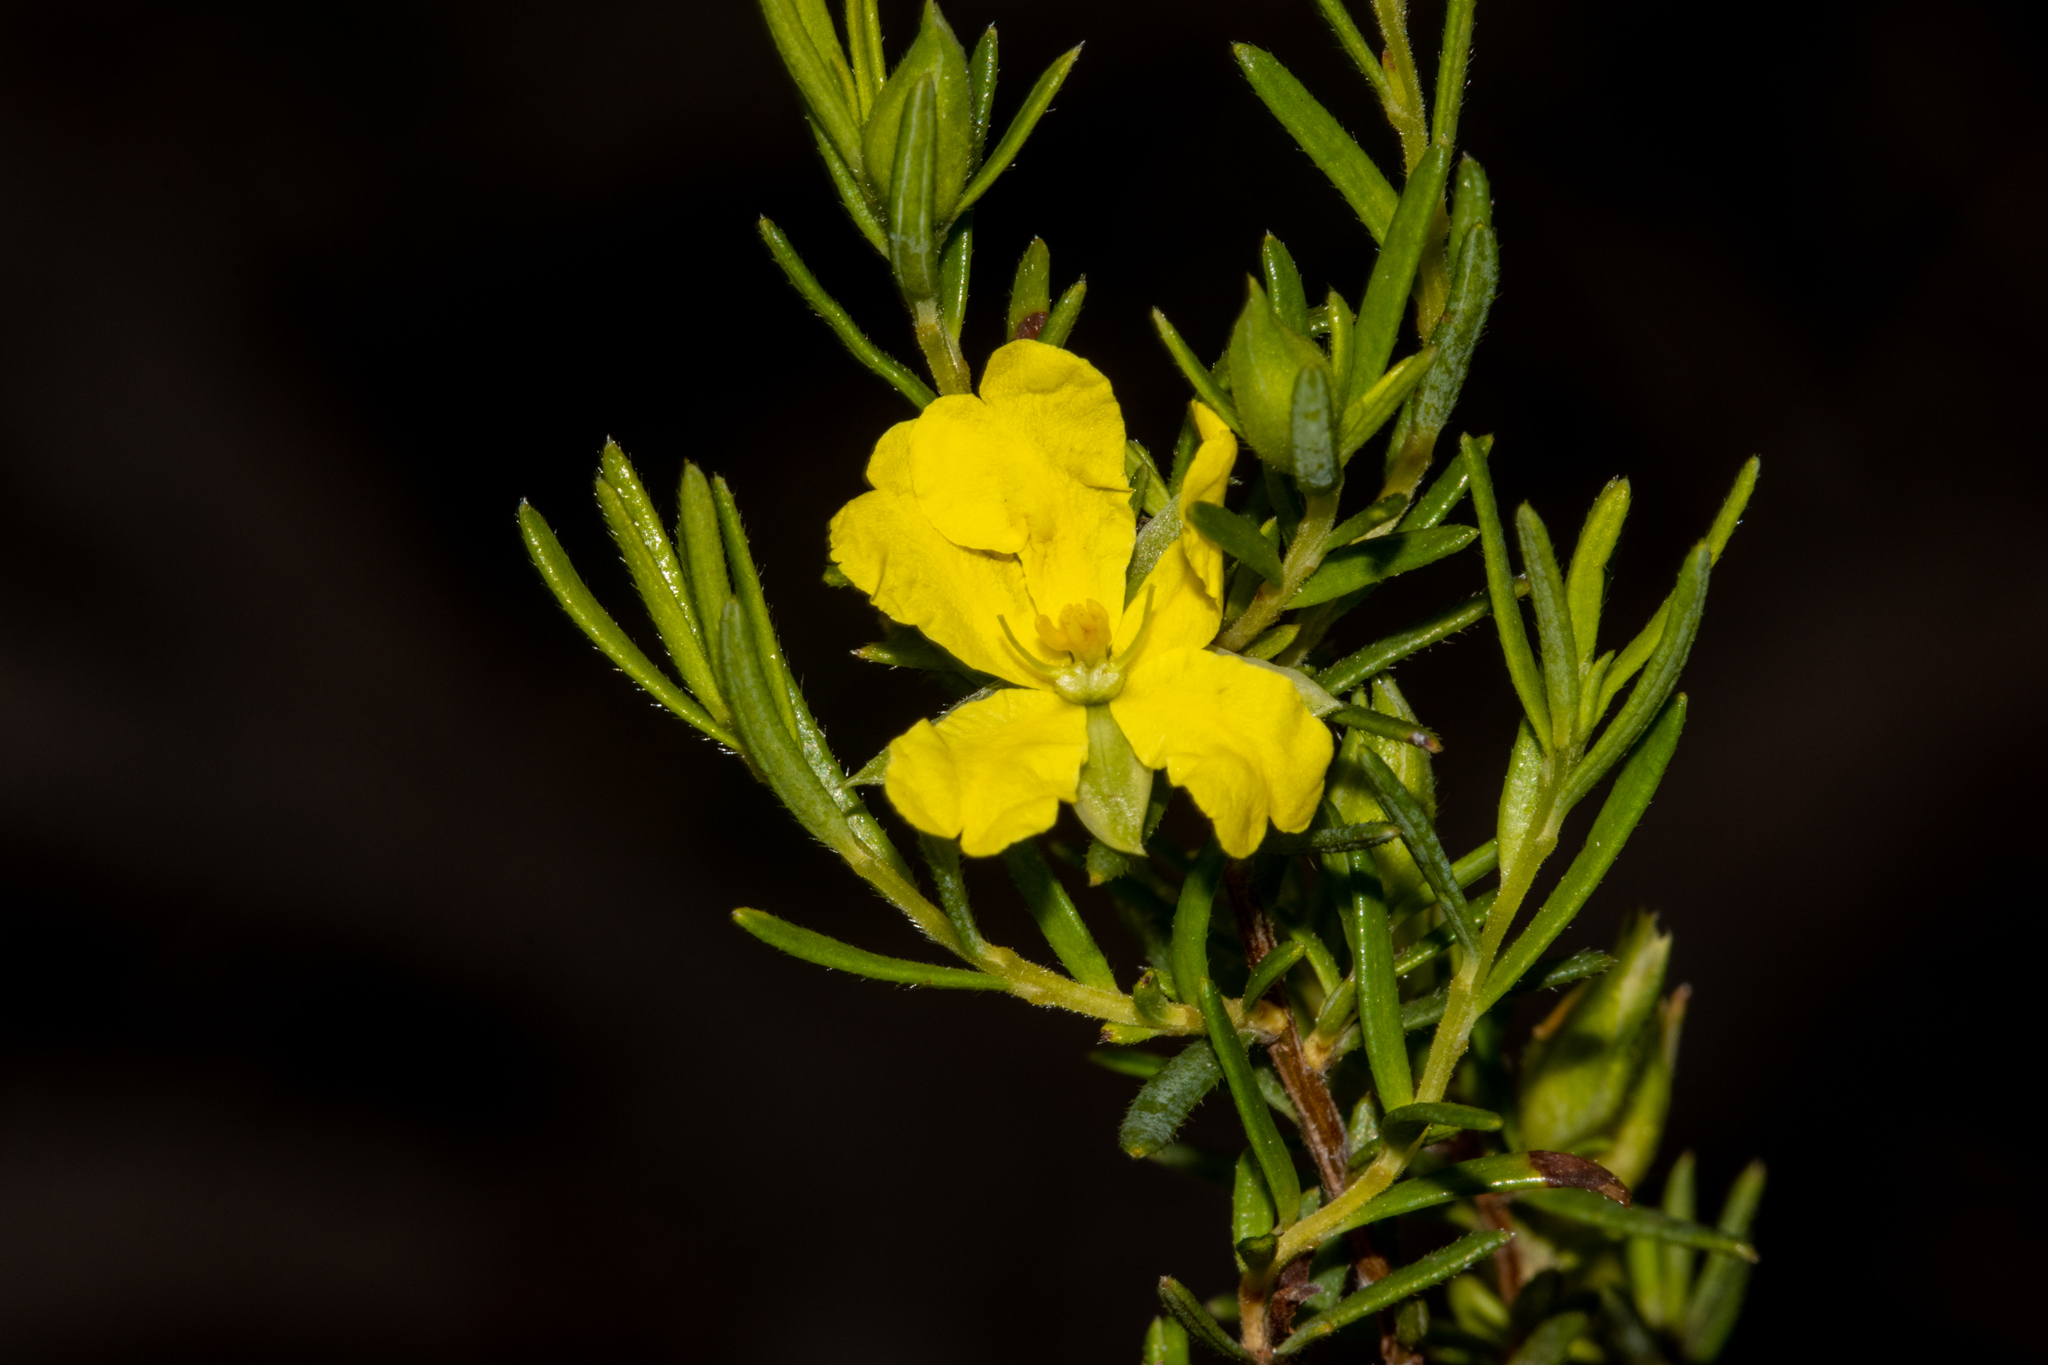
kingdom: Plantae
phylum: Tracheophyta
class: Magnoliopsida
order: Dilleniales
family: Dilleniaceae
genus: Hibbertia
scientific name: Hibbertia riparia
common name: Erect guinea-flower
